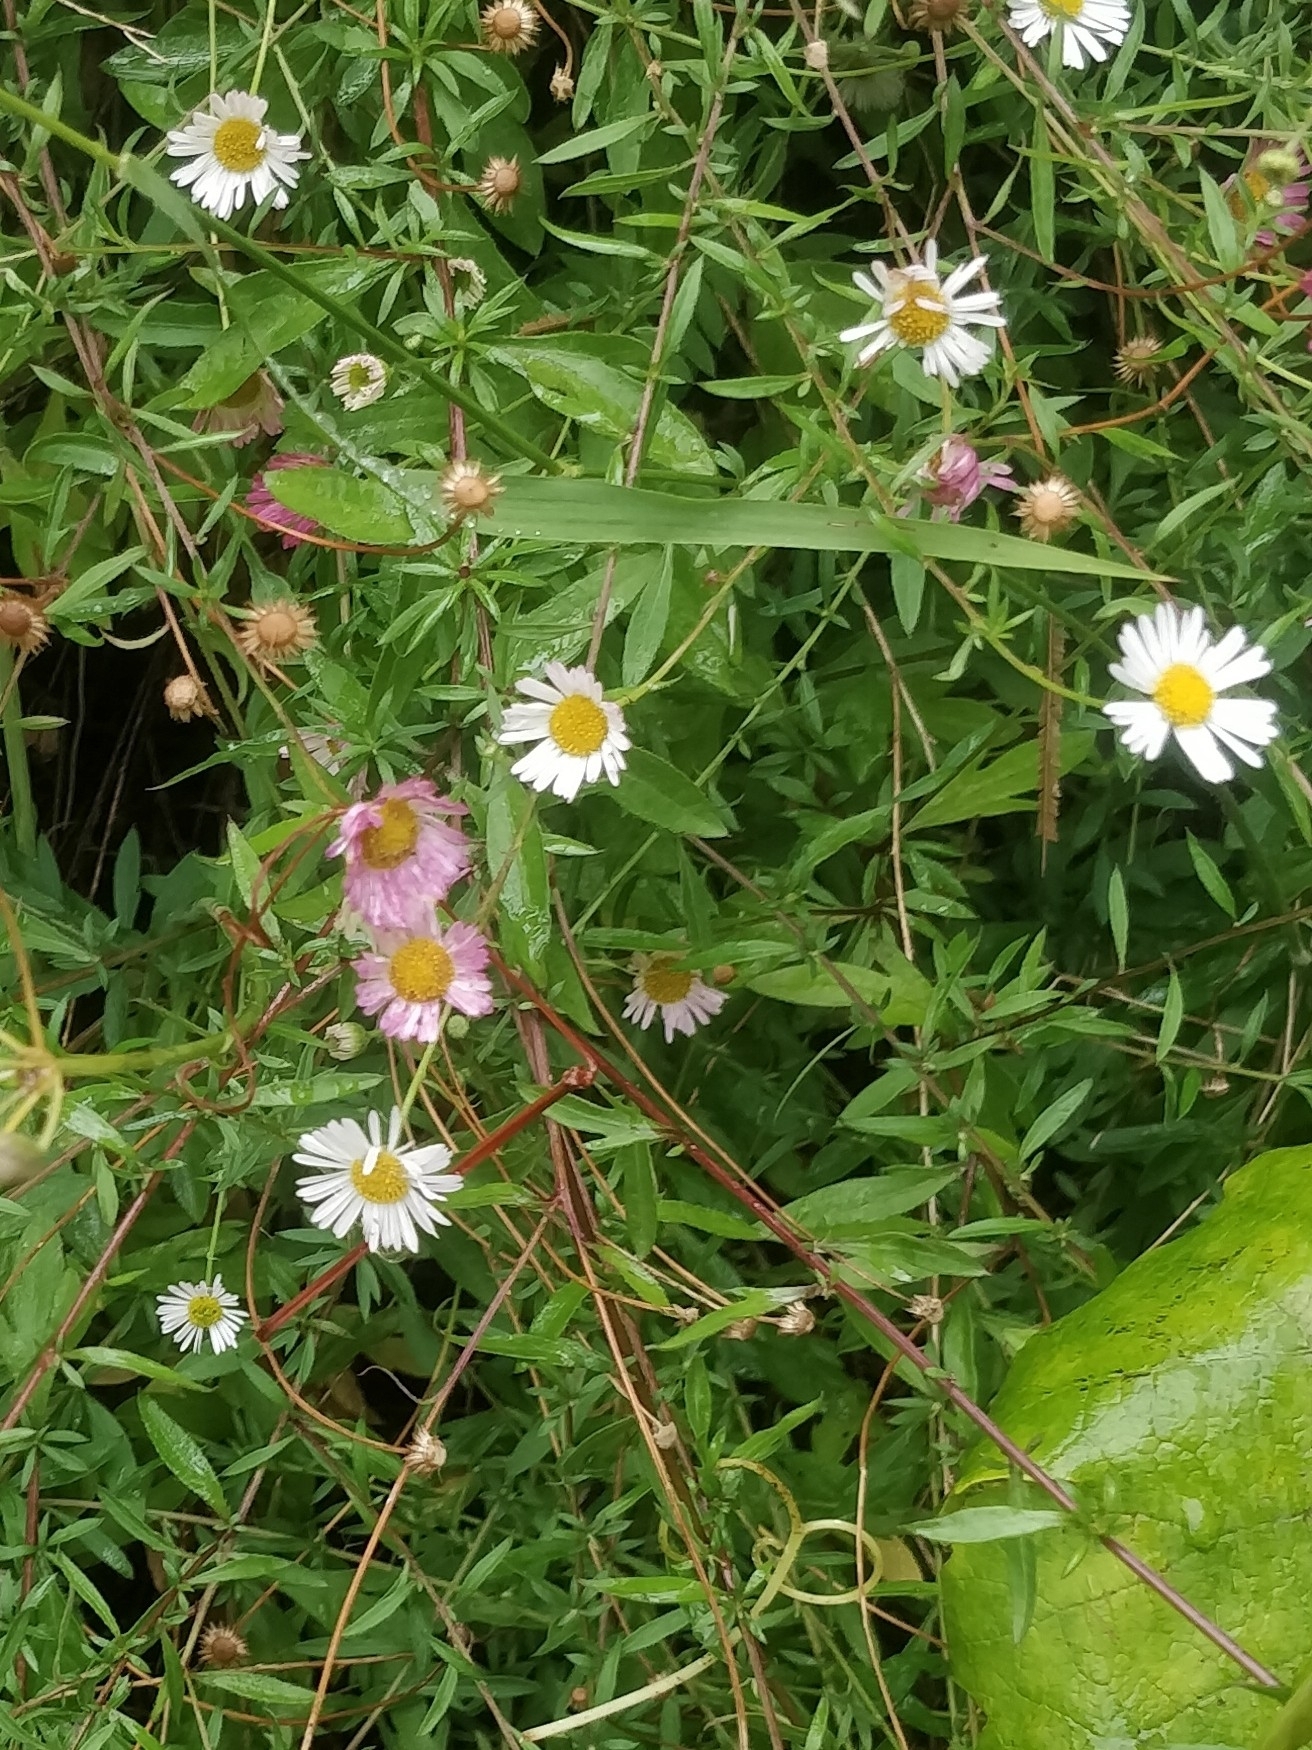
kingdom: Plantae
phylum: Tracheophyta
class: Magnoliopsida
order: Asterales
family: Asteraceae
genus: Erigeron
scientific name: Erigeron karvinskianus
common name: Mexican fleabane
